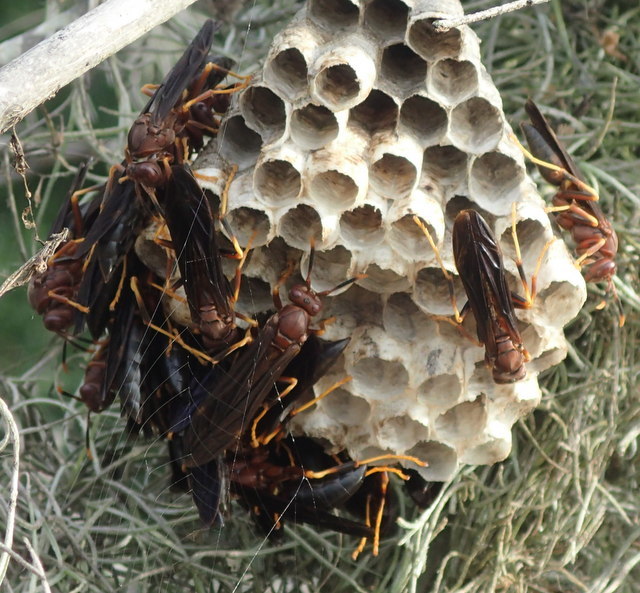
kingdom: Animalia
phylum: Arthropoda
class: Insecta
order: Hymenoptera
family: Eumenidae
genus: Polistes
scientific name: Polistes annularis
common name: Ringed paper wasp
